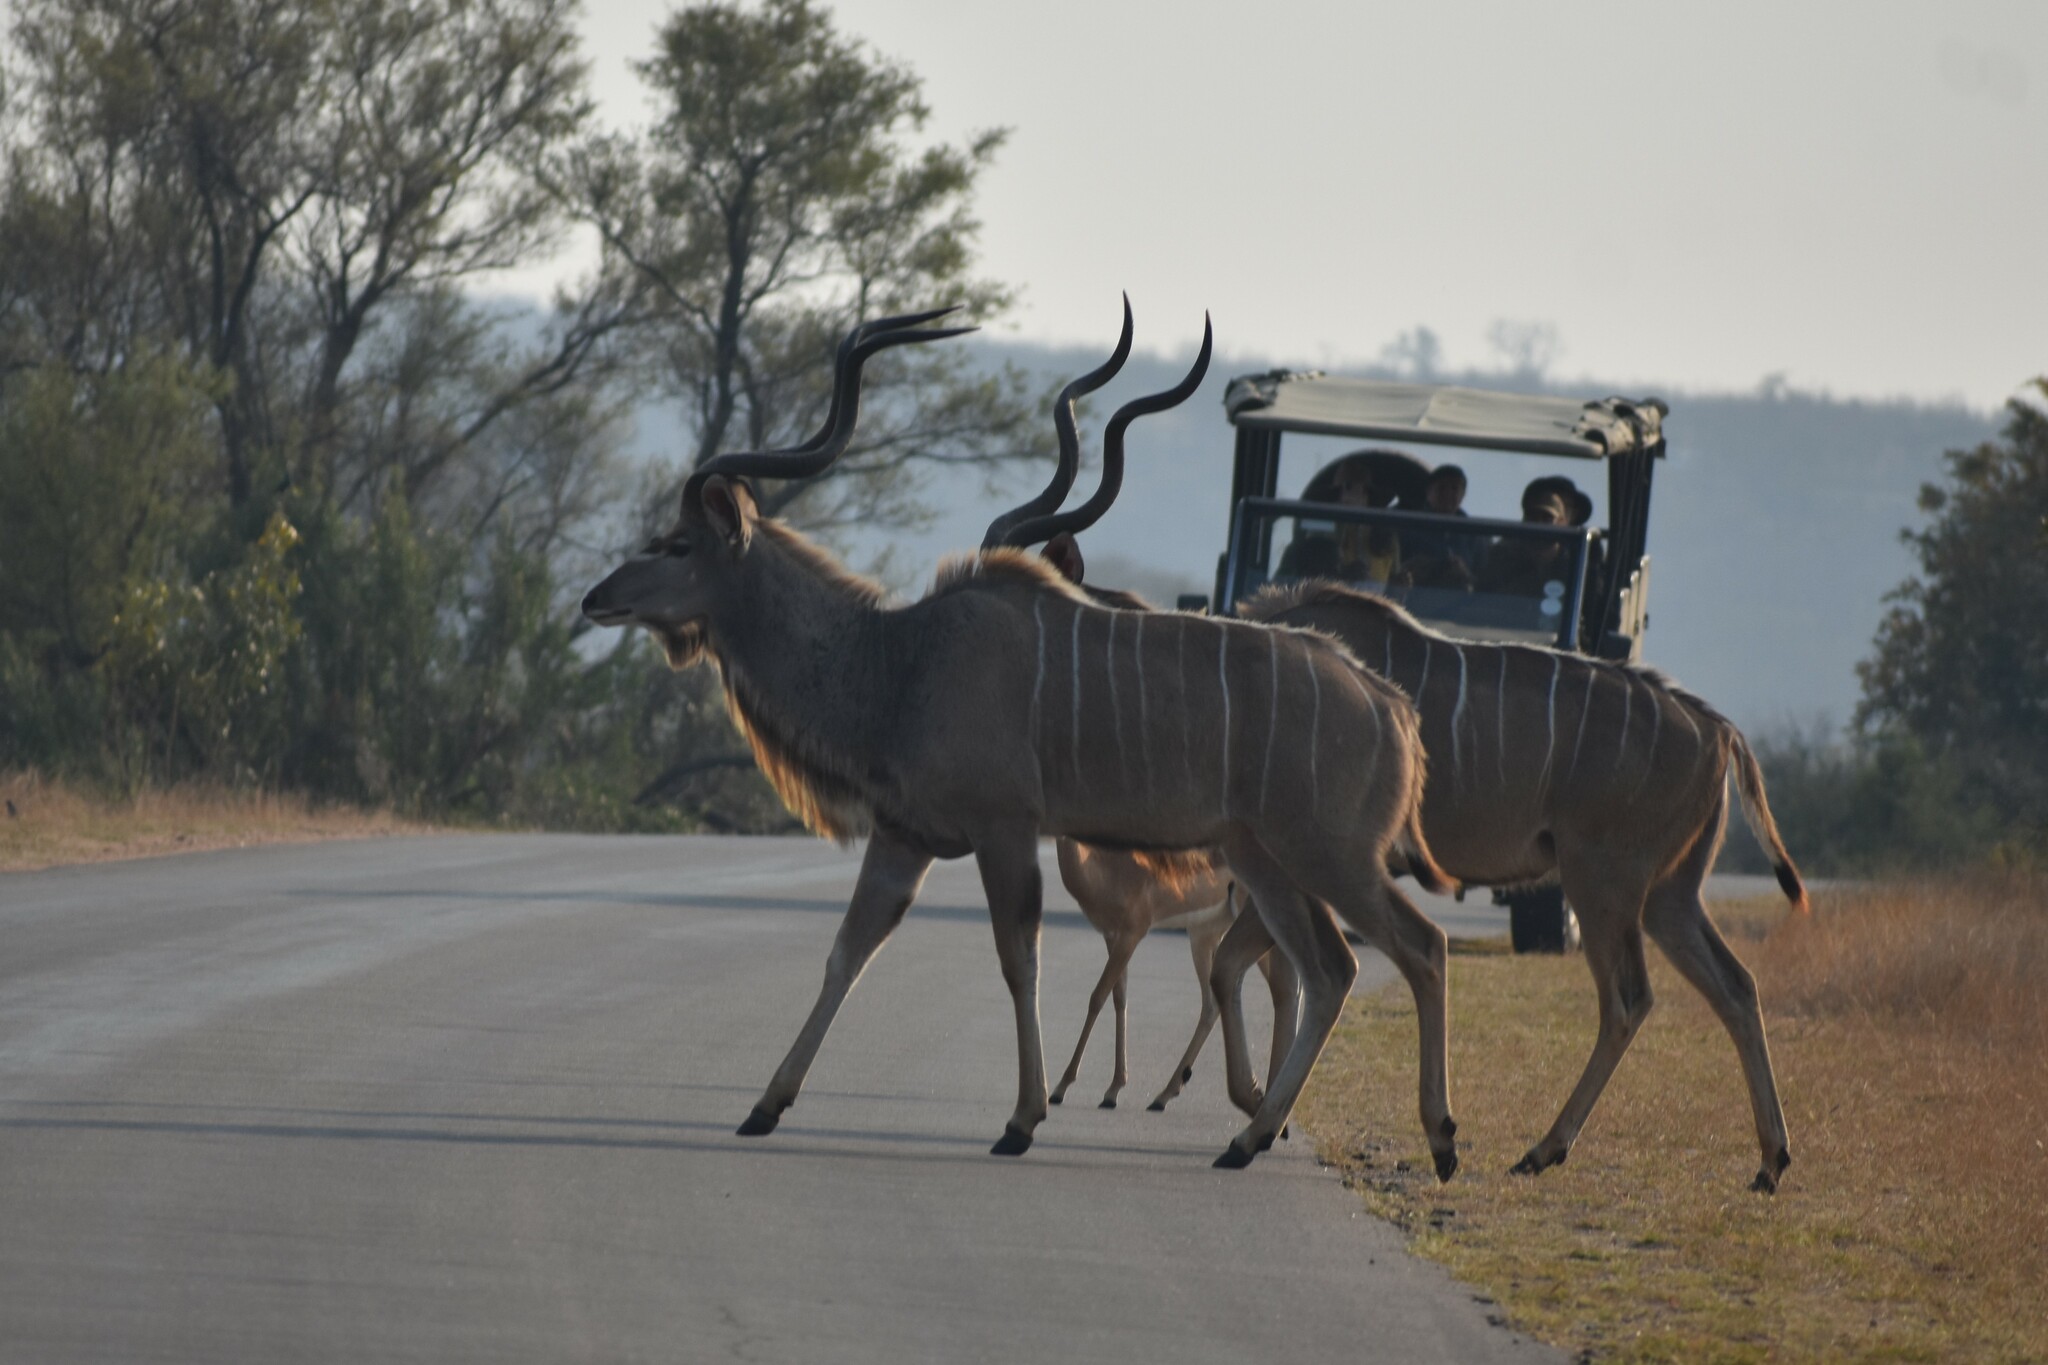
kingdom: Animalia
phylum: Chordata
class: Mammalia
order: Artiodactyla
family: Bovidae
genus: Tragelaphus
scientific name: Tragelaphus strepsiceros
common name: Greater kudu
